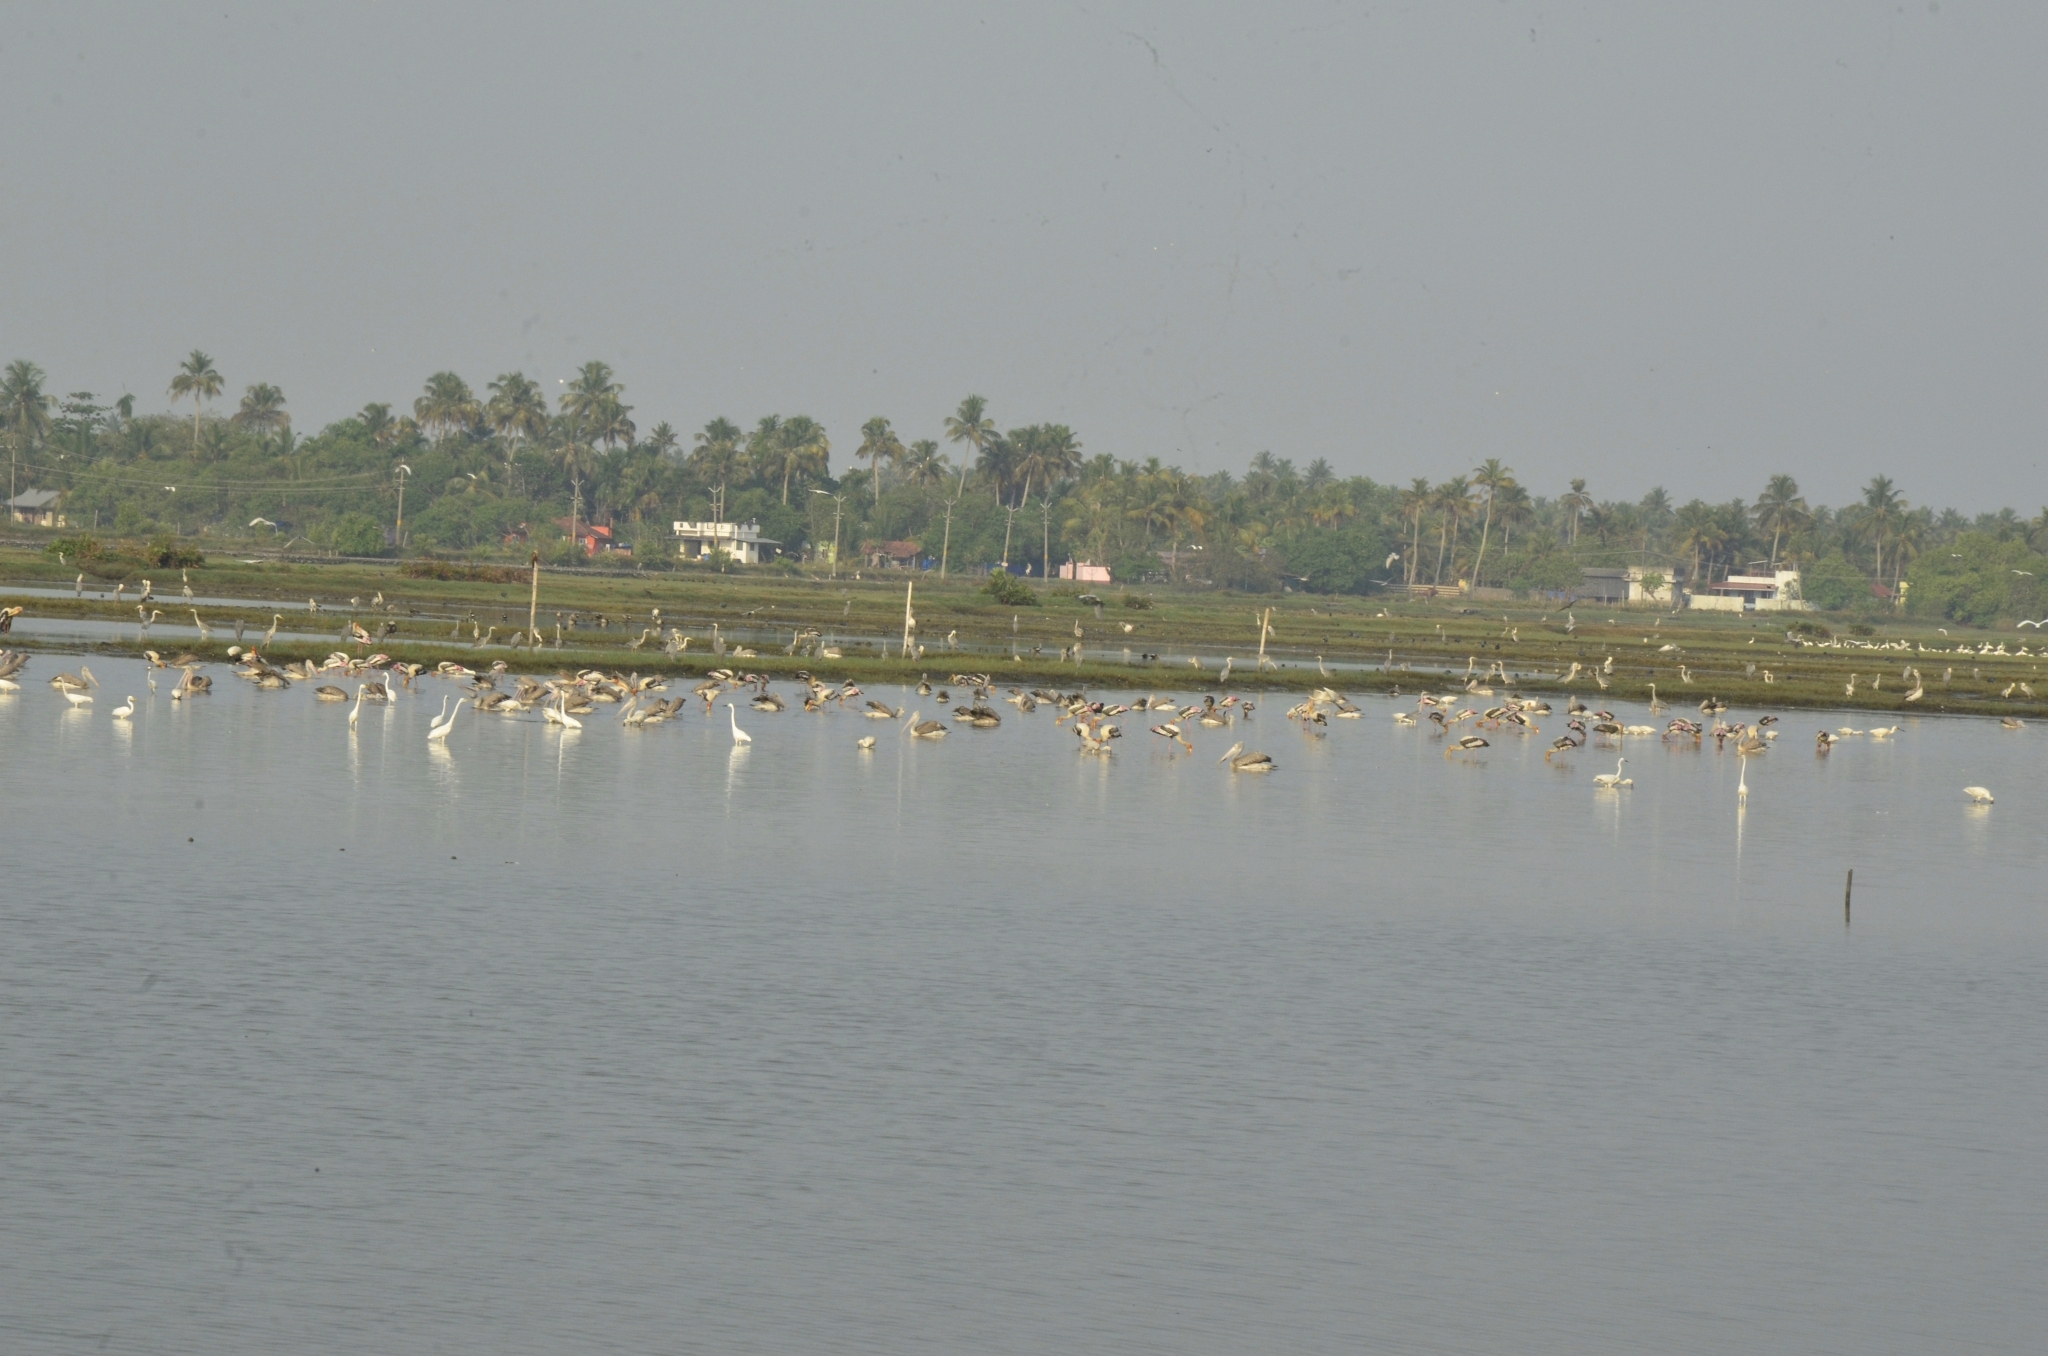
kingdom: Animalia
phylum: Chordata
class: Aves
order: Pelecaniformes
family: Pelecanidae
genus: Pelecanus
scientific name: Pelecanus philippensis
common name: Spot-billed pelican
